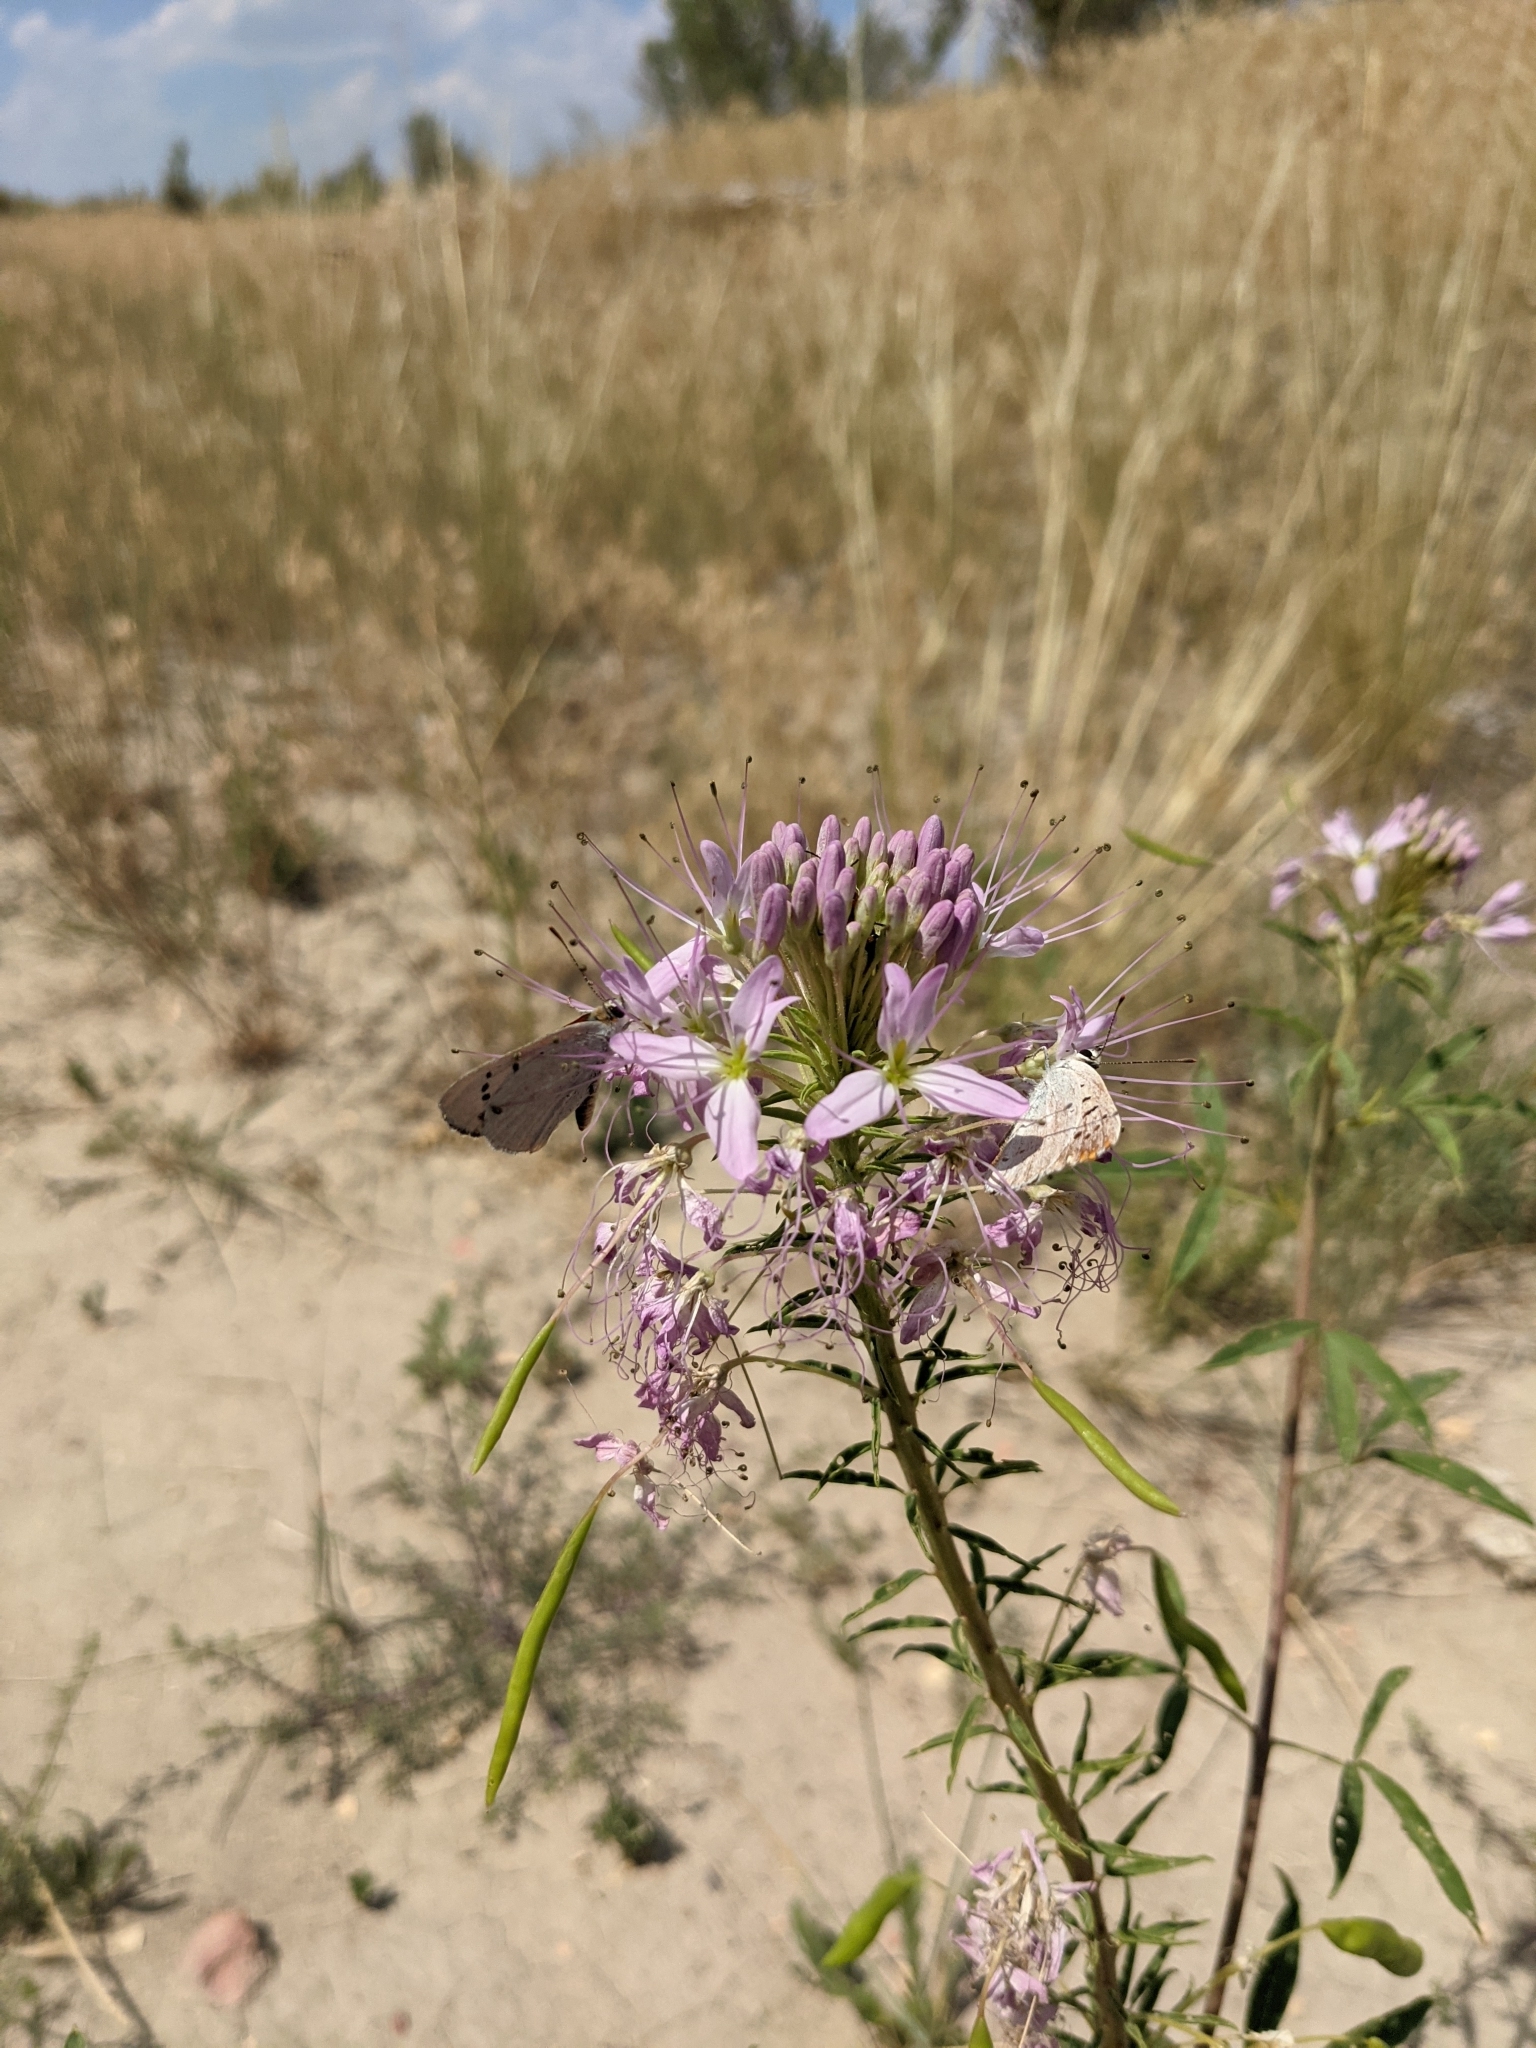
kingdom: Plantae
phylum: Tracheophyta
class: Magnoliopsida
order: Brassicales
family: Cleomaceae
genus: Cleomella
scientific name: Cleomella serrulata
